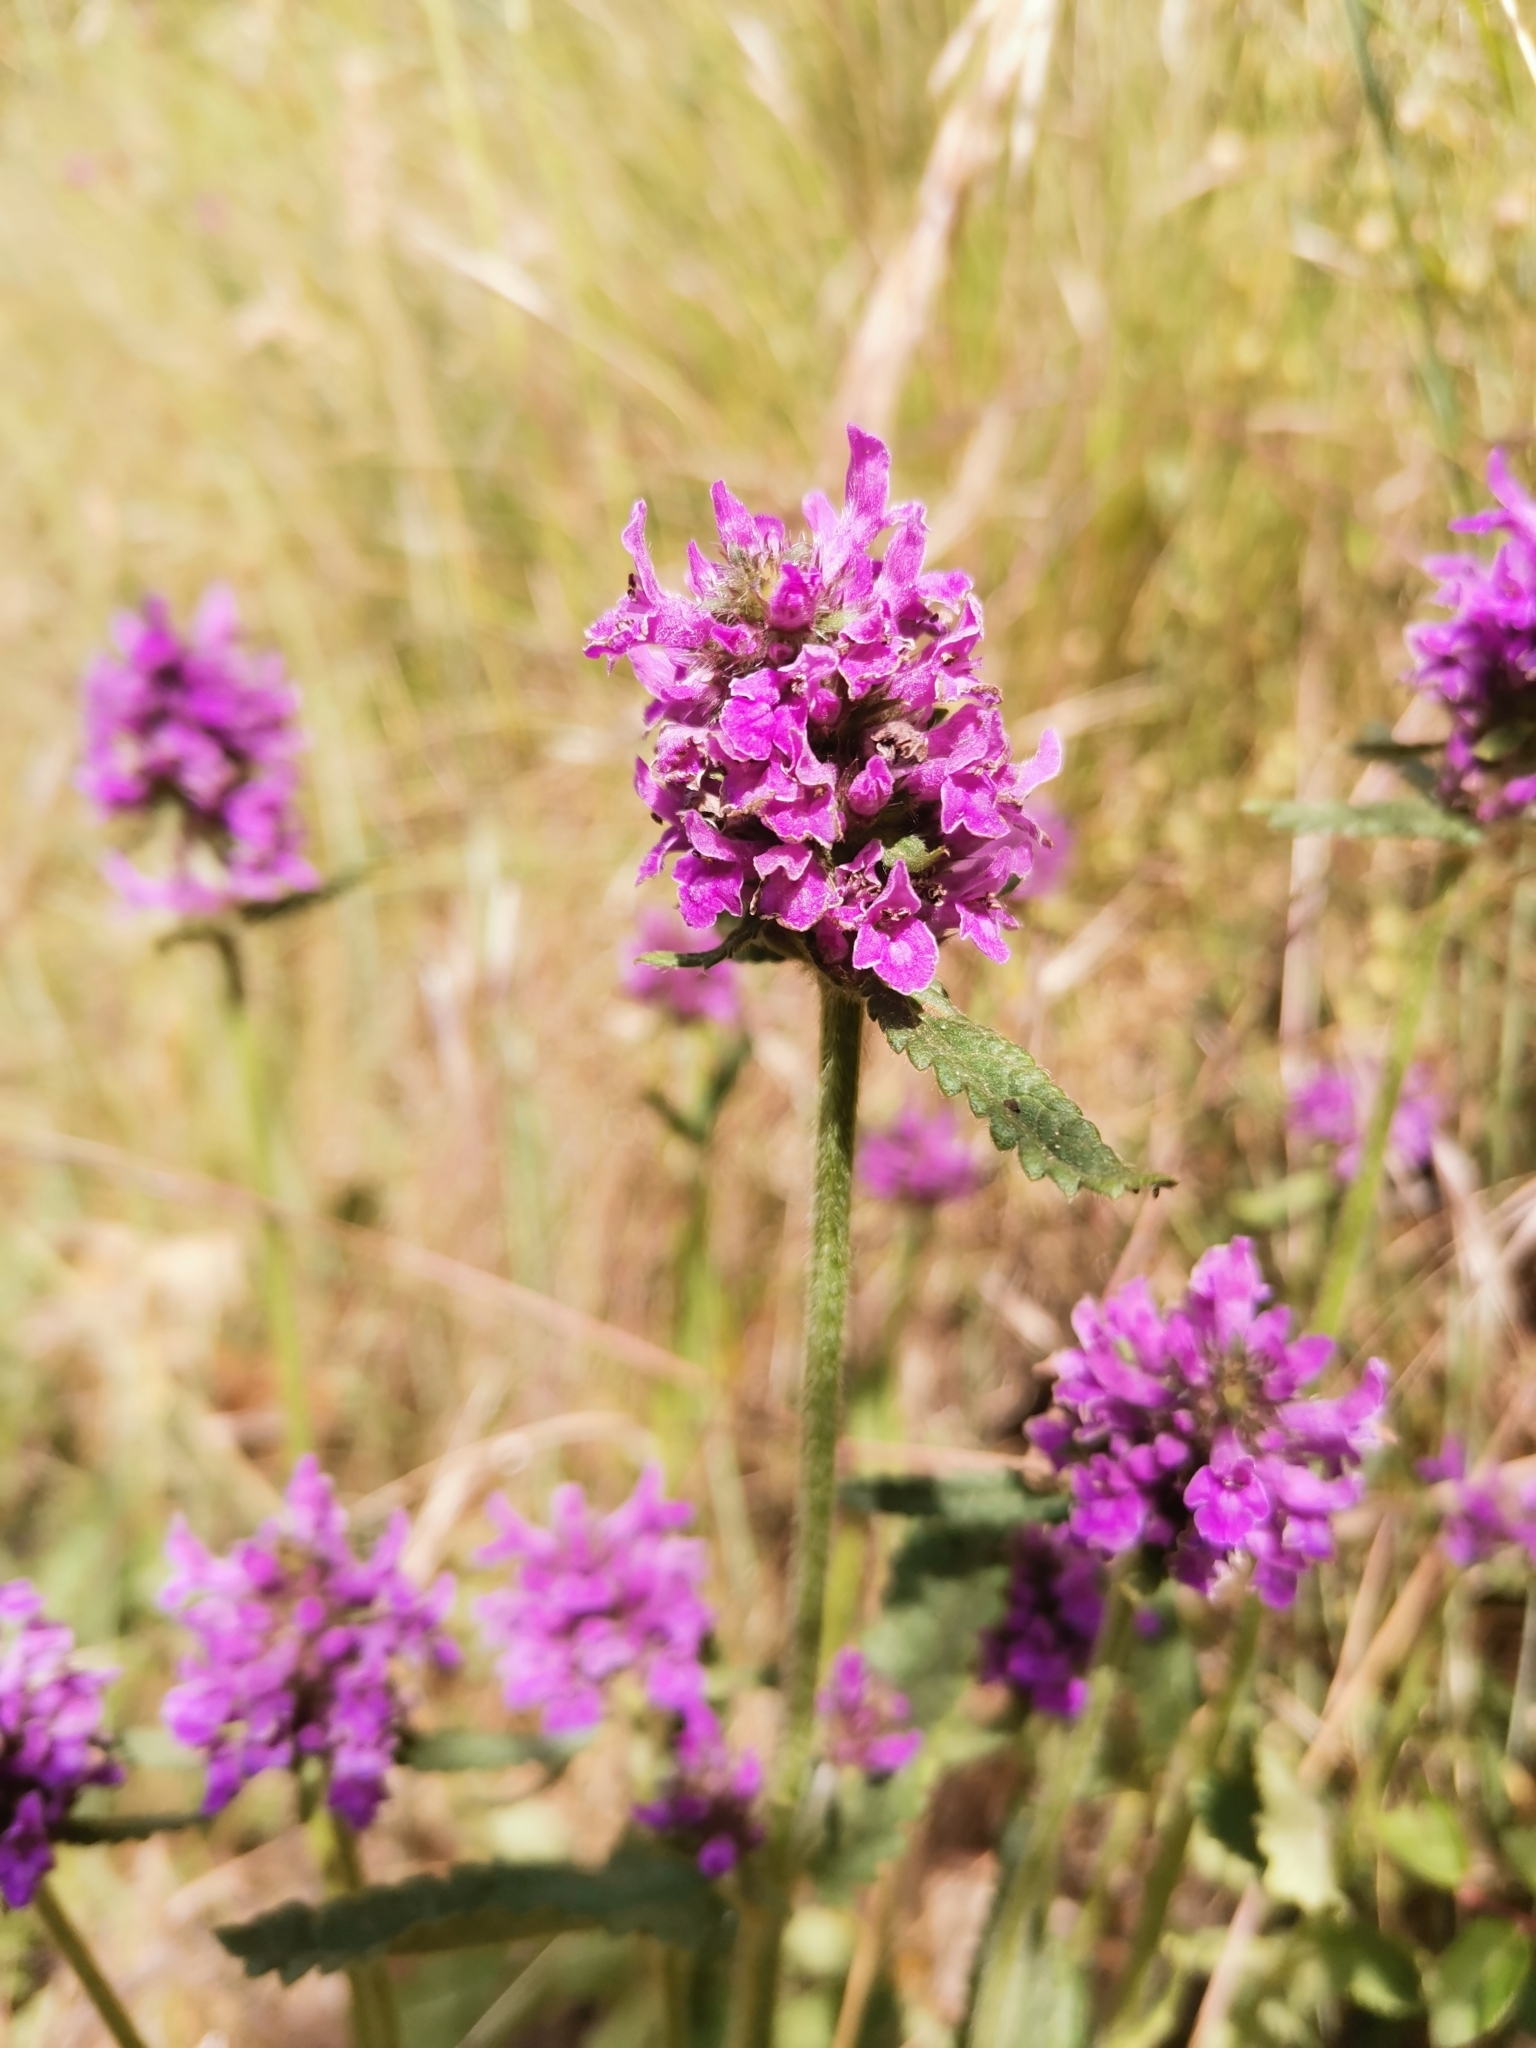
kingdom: Plantae
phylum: Tracheophyta
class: Magnoliopsida
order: Lamiales
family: Lamiaceae
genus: Betonica
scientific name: Betonica officinalis
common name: Bishop's-wort
